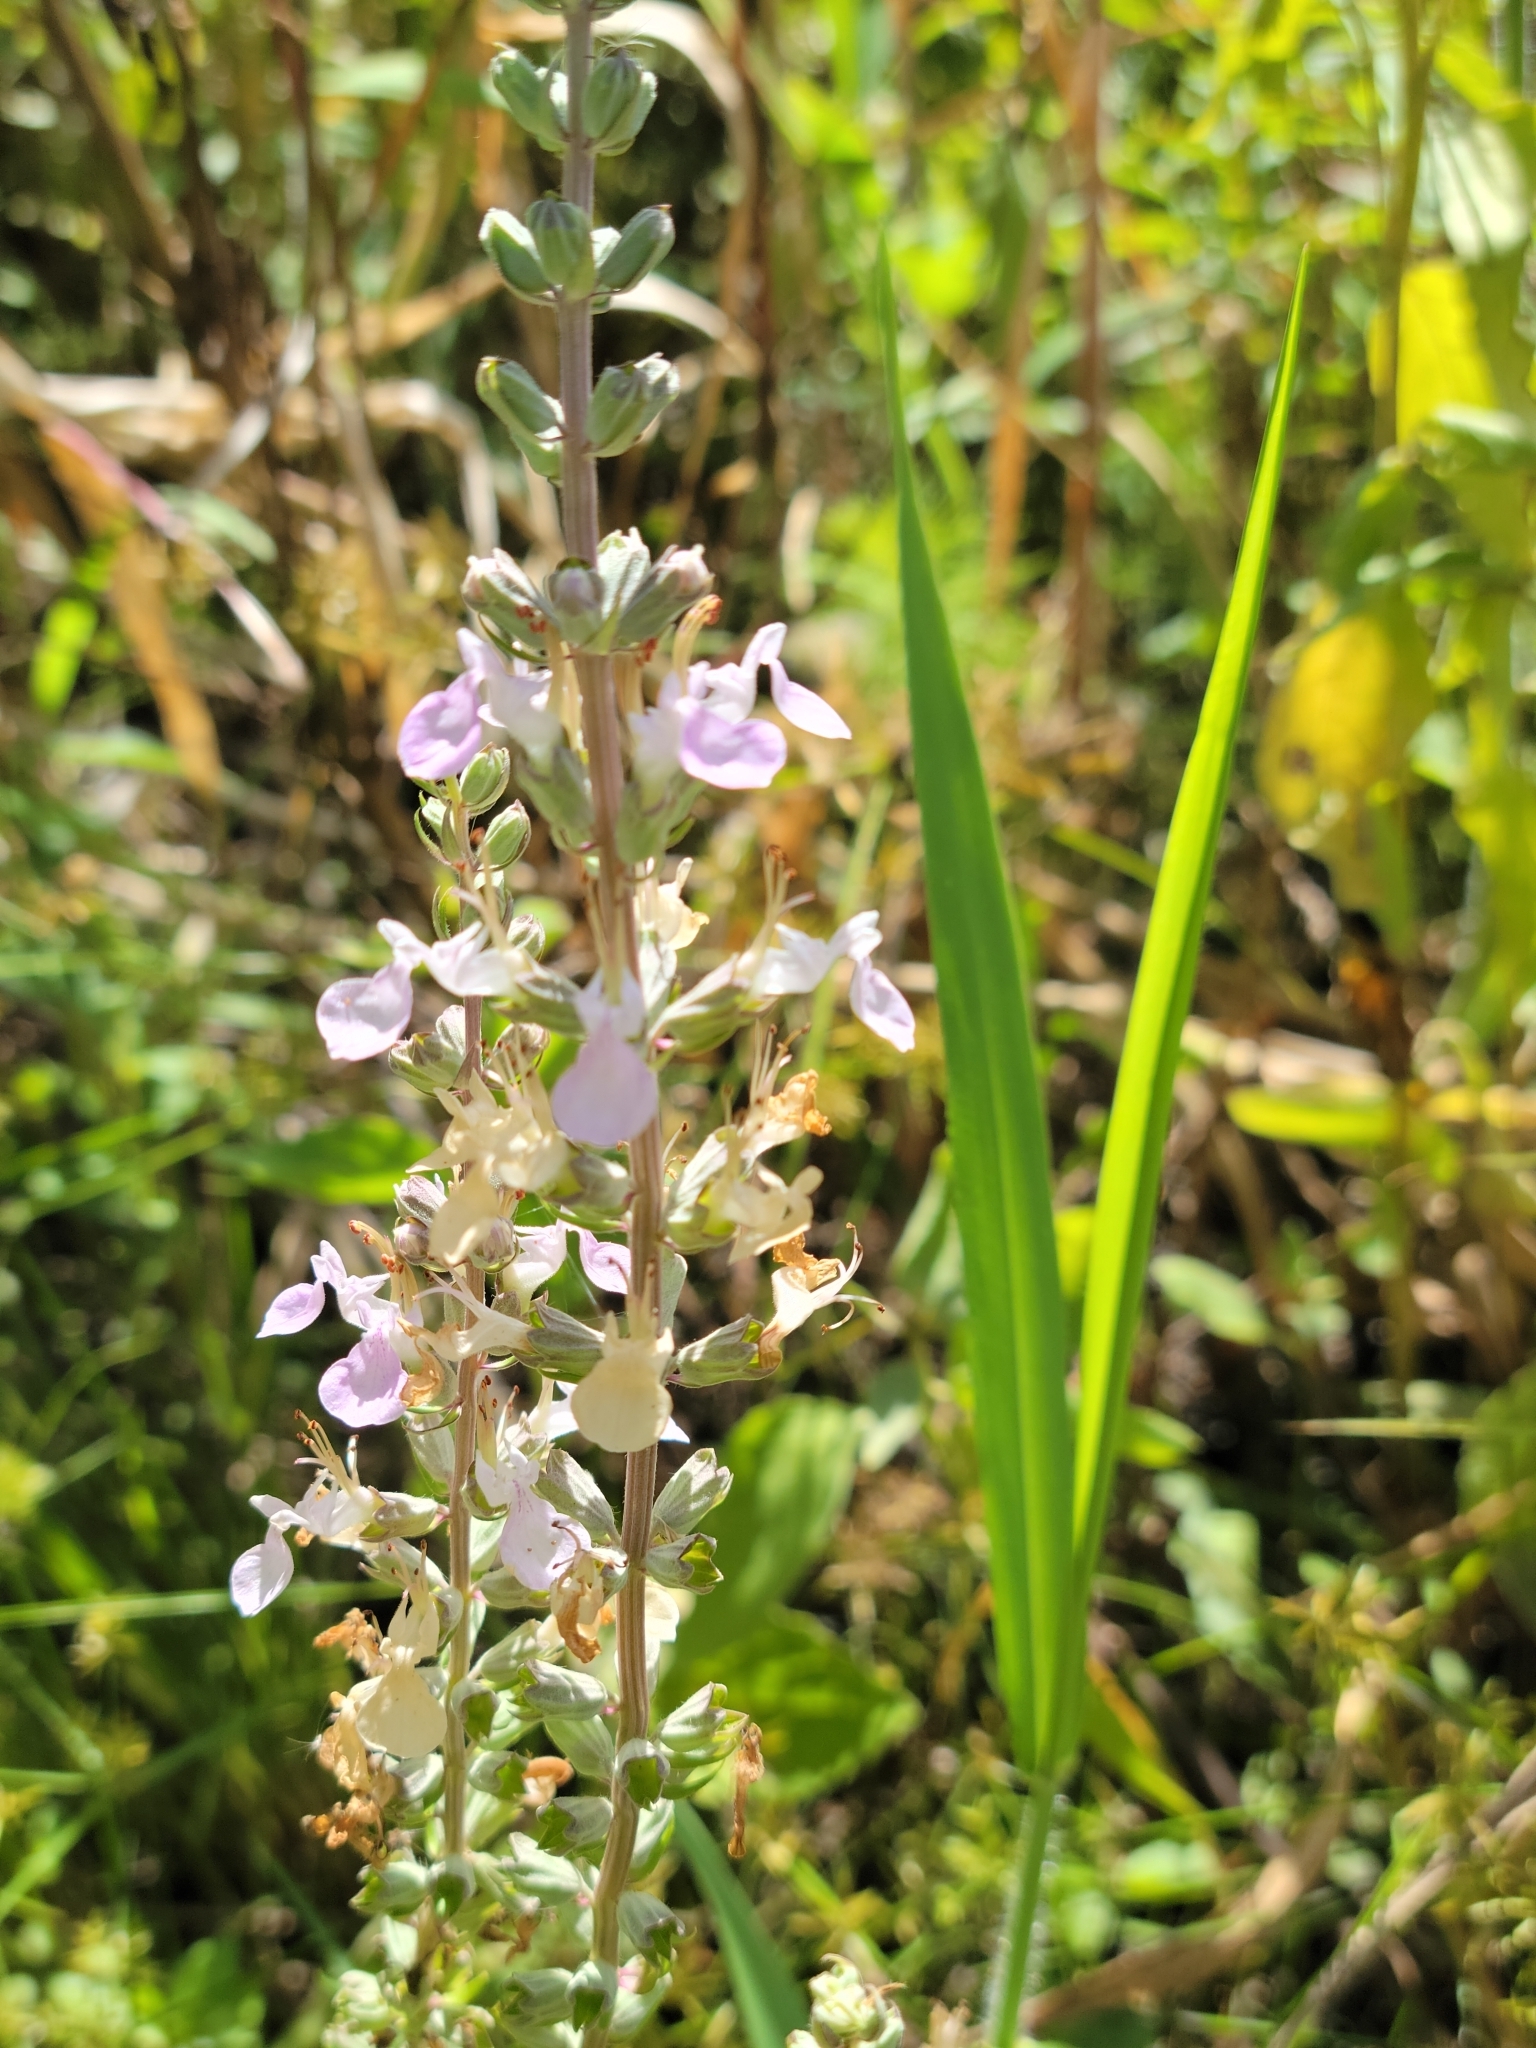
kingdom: Plantae
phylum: Tracheophyta
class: Magnoliopsida
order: Lamiales
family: Lamiaceae
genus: Teucrium
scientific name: Teucrium canadense
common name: American germander
